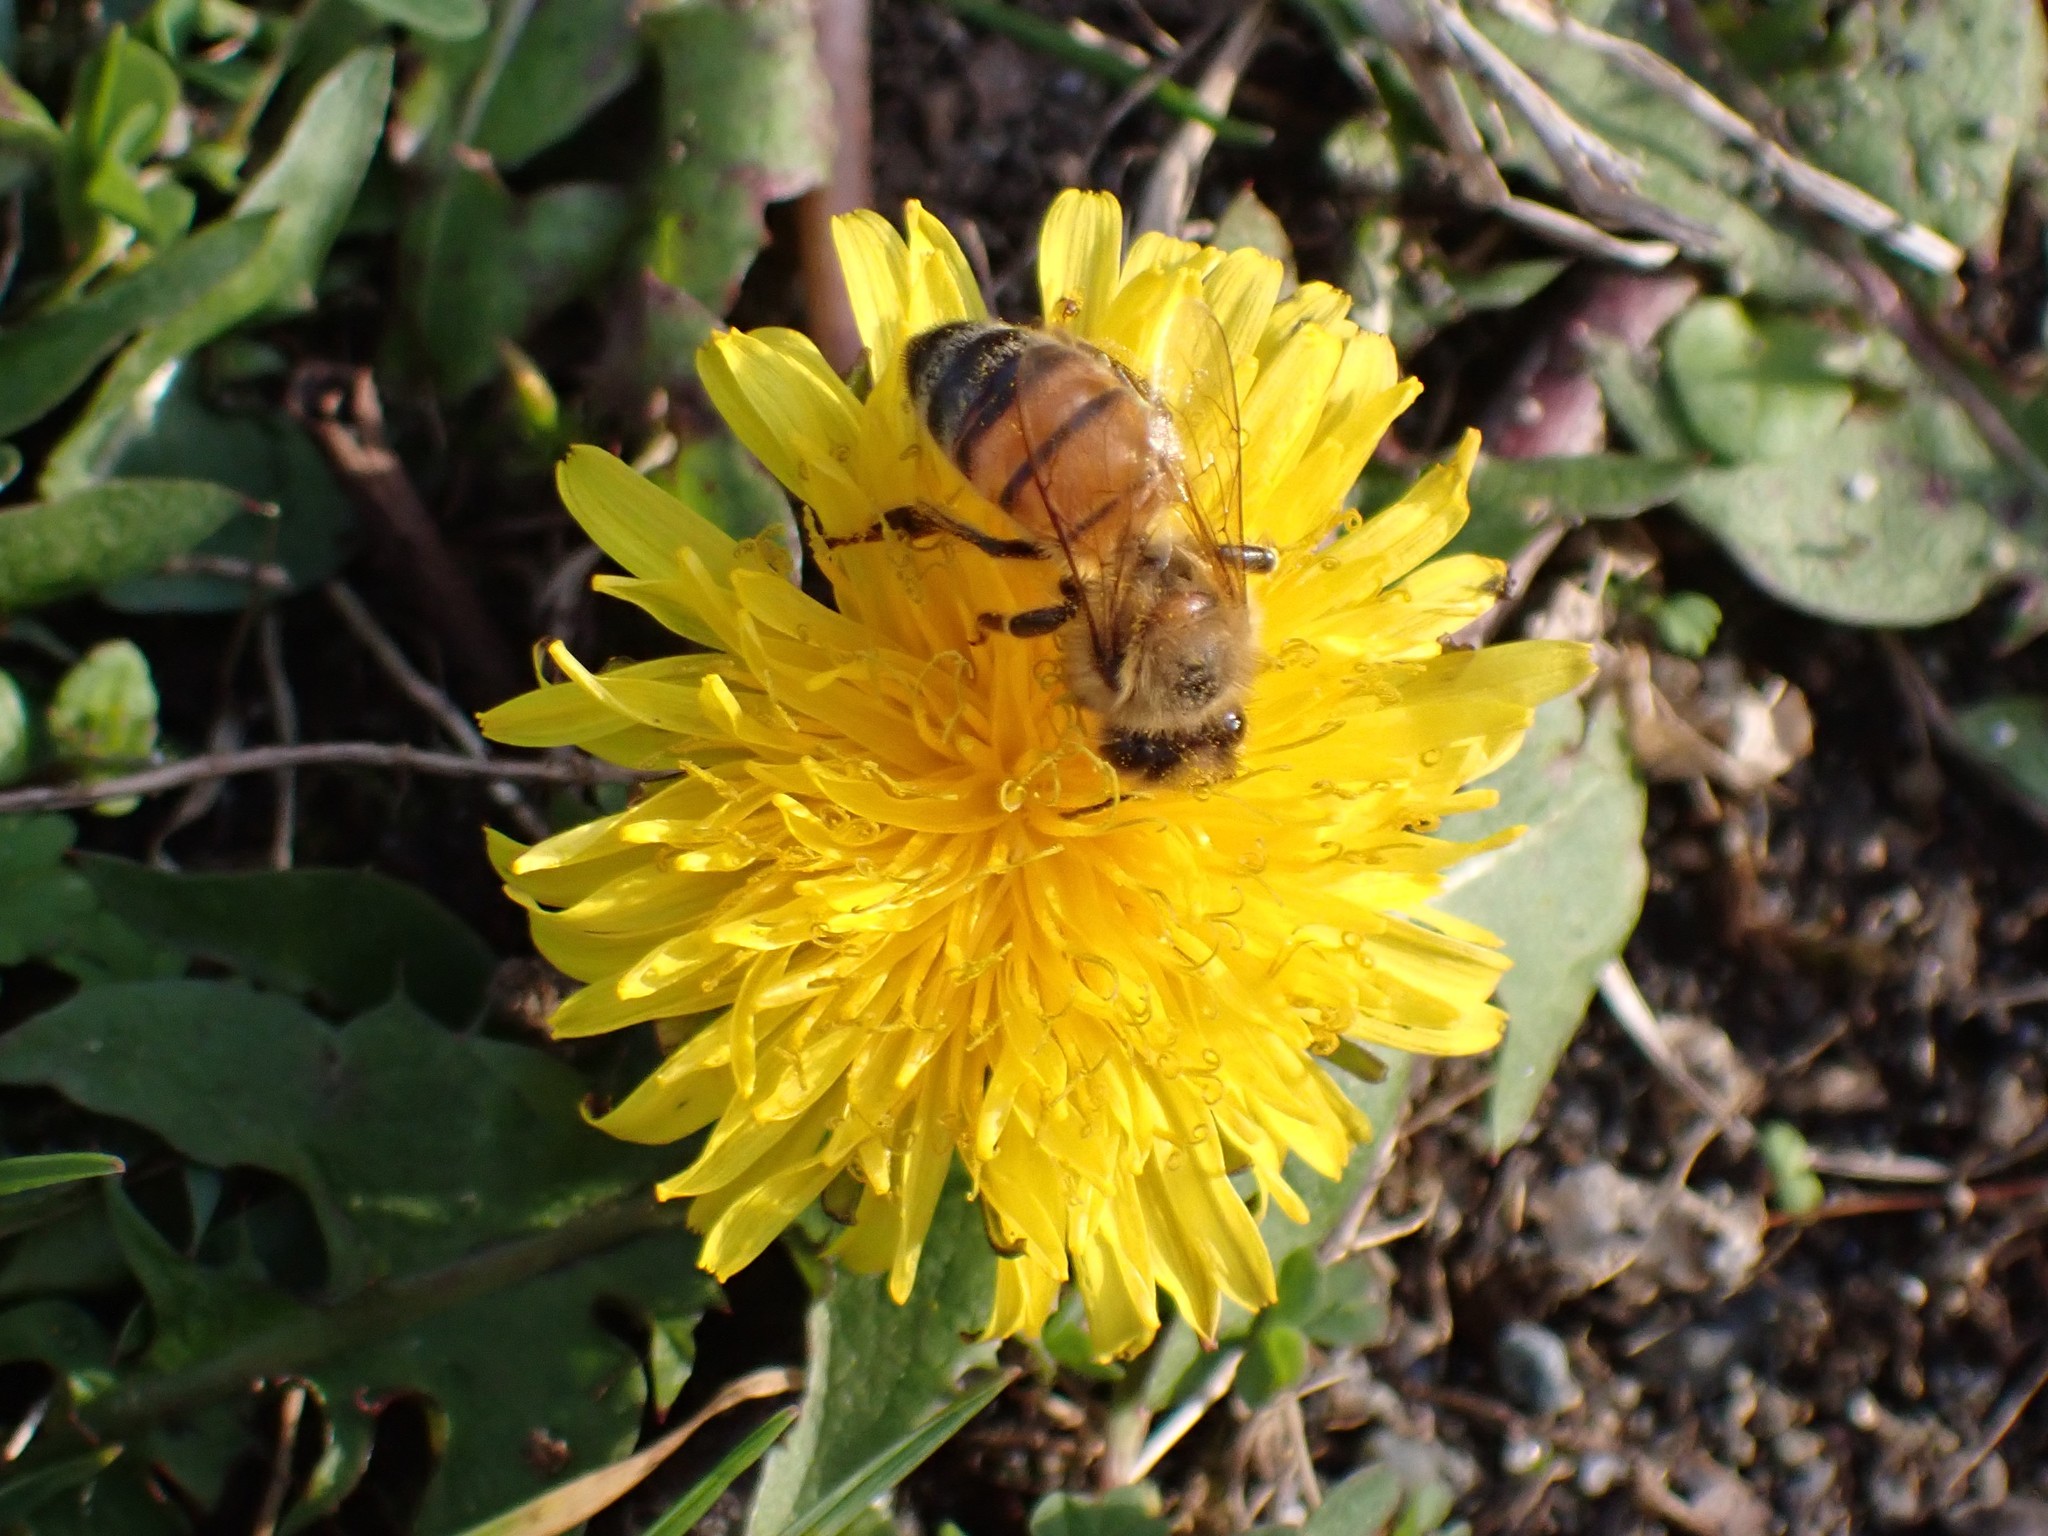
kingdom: Animalia
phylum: Arthropoda
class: Insecta
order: Hymenoptera
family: Apidae
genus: Apis
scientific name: Apis mellifera
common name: Honey bee
